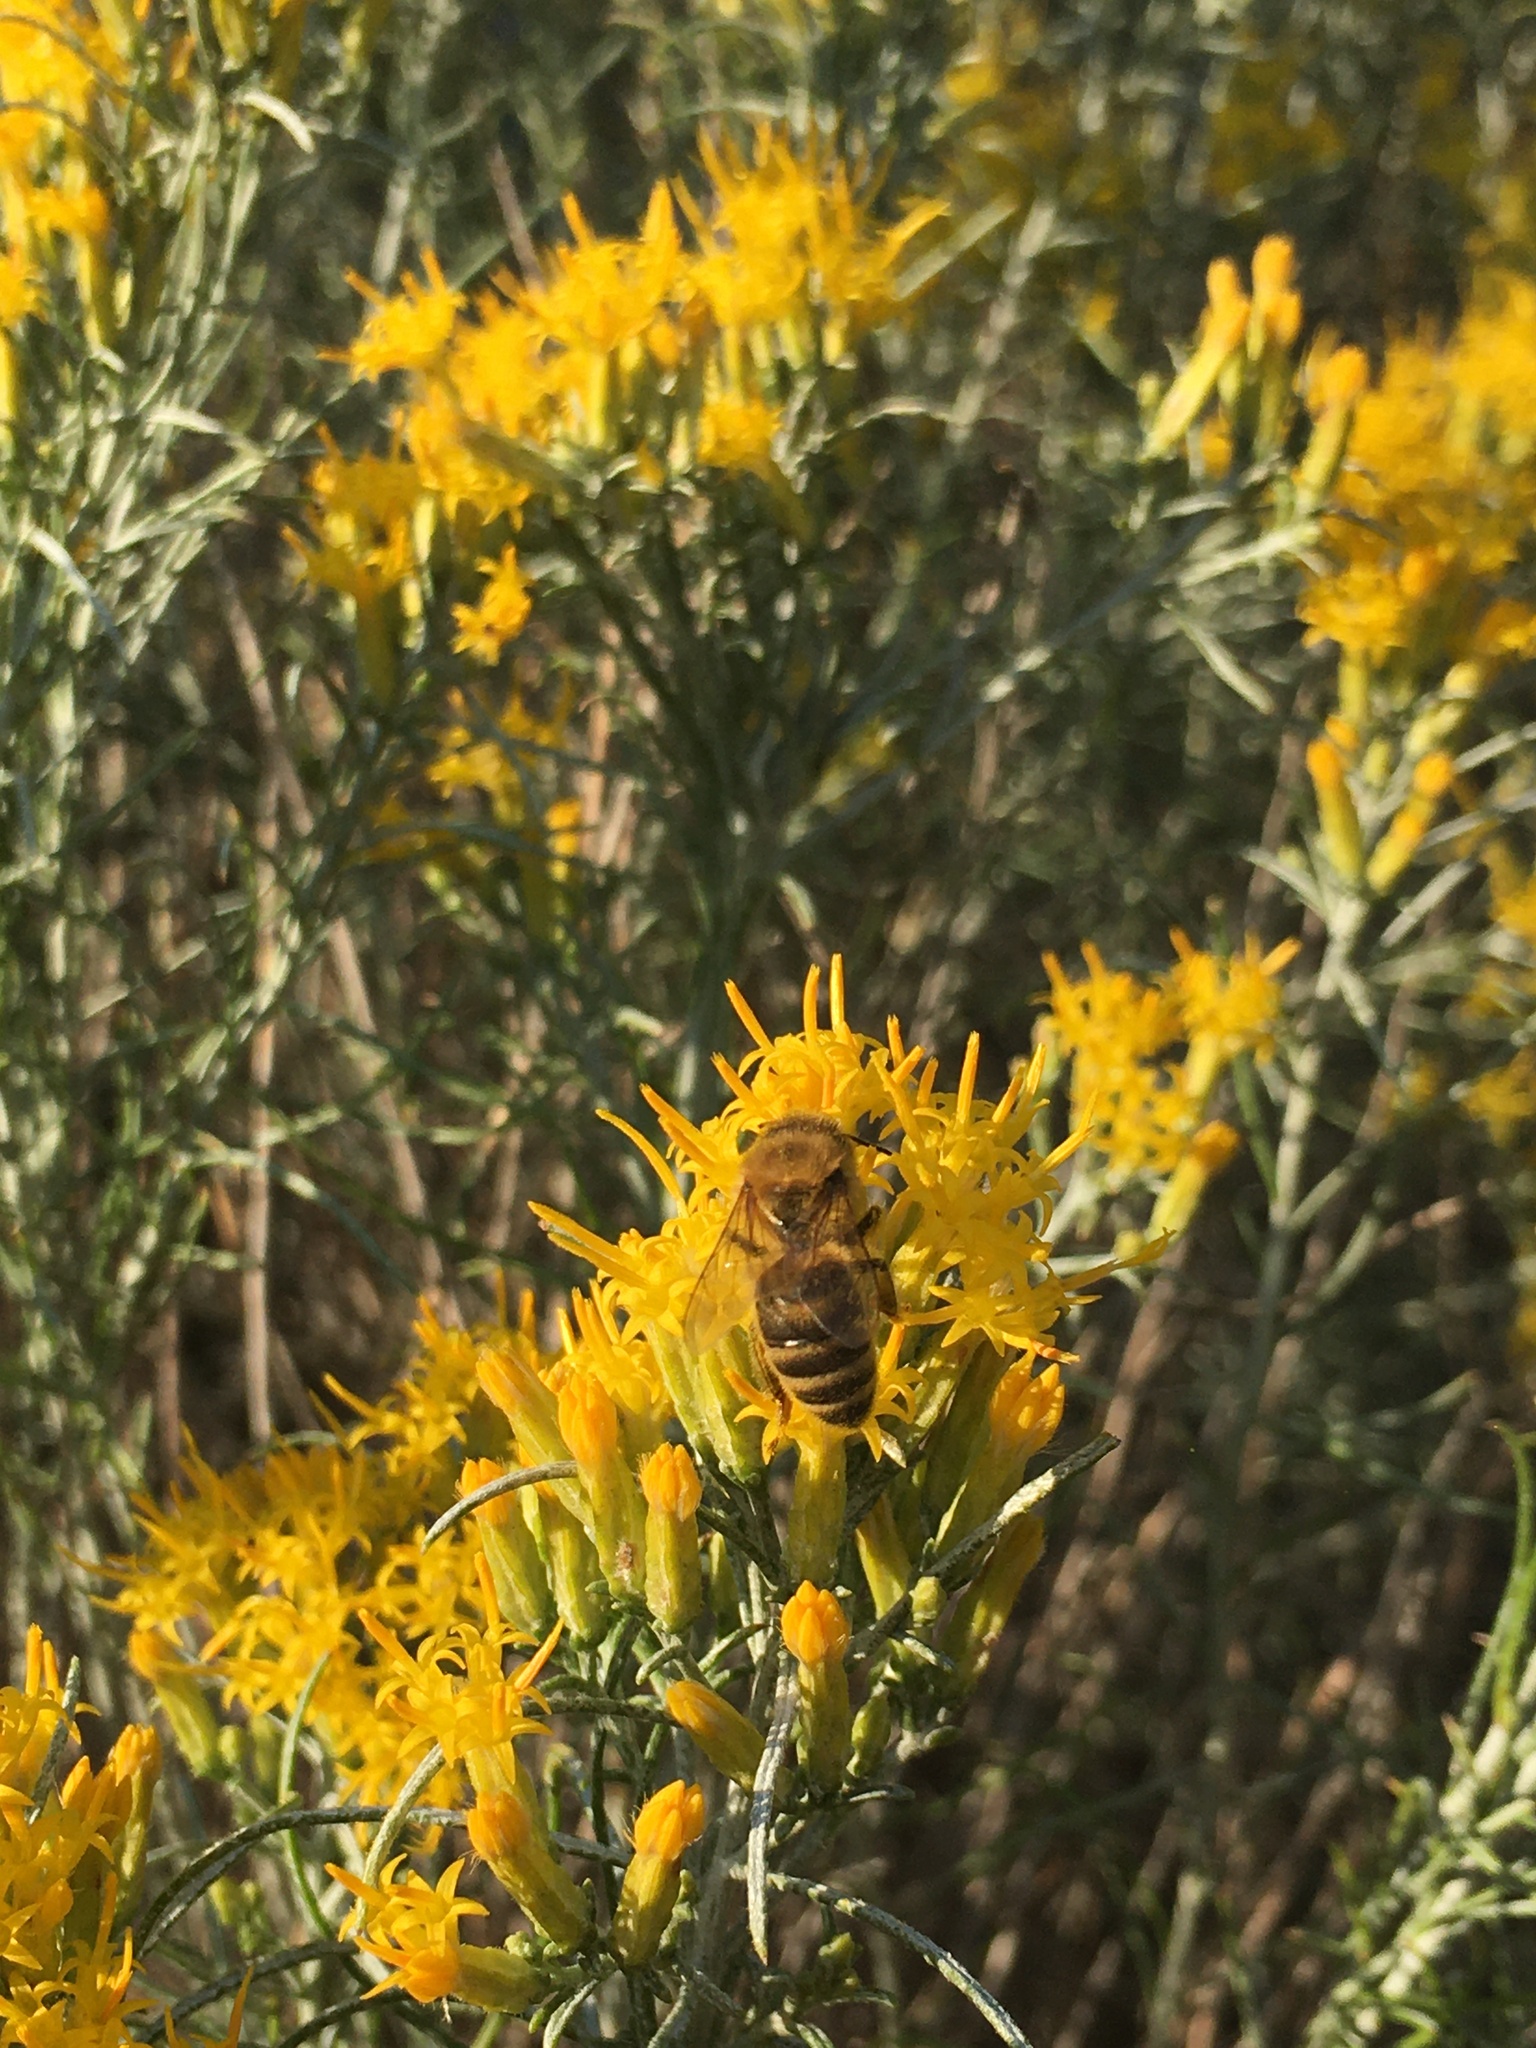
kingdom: Animalia
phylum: Arthropoda
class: Insecta
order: Hymenoptera
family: Apidae
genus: Apis
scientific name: Apis mellifera
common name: Honey bee
